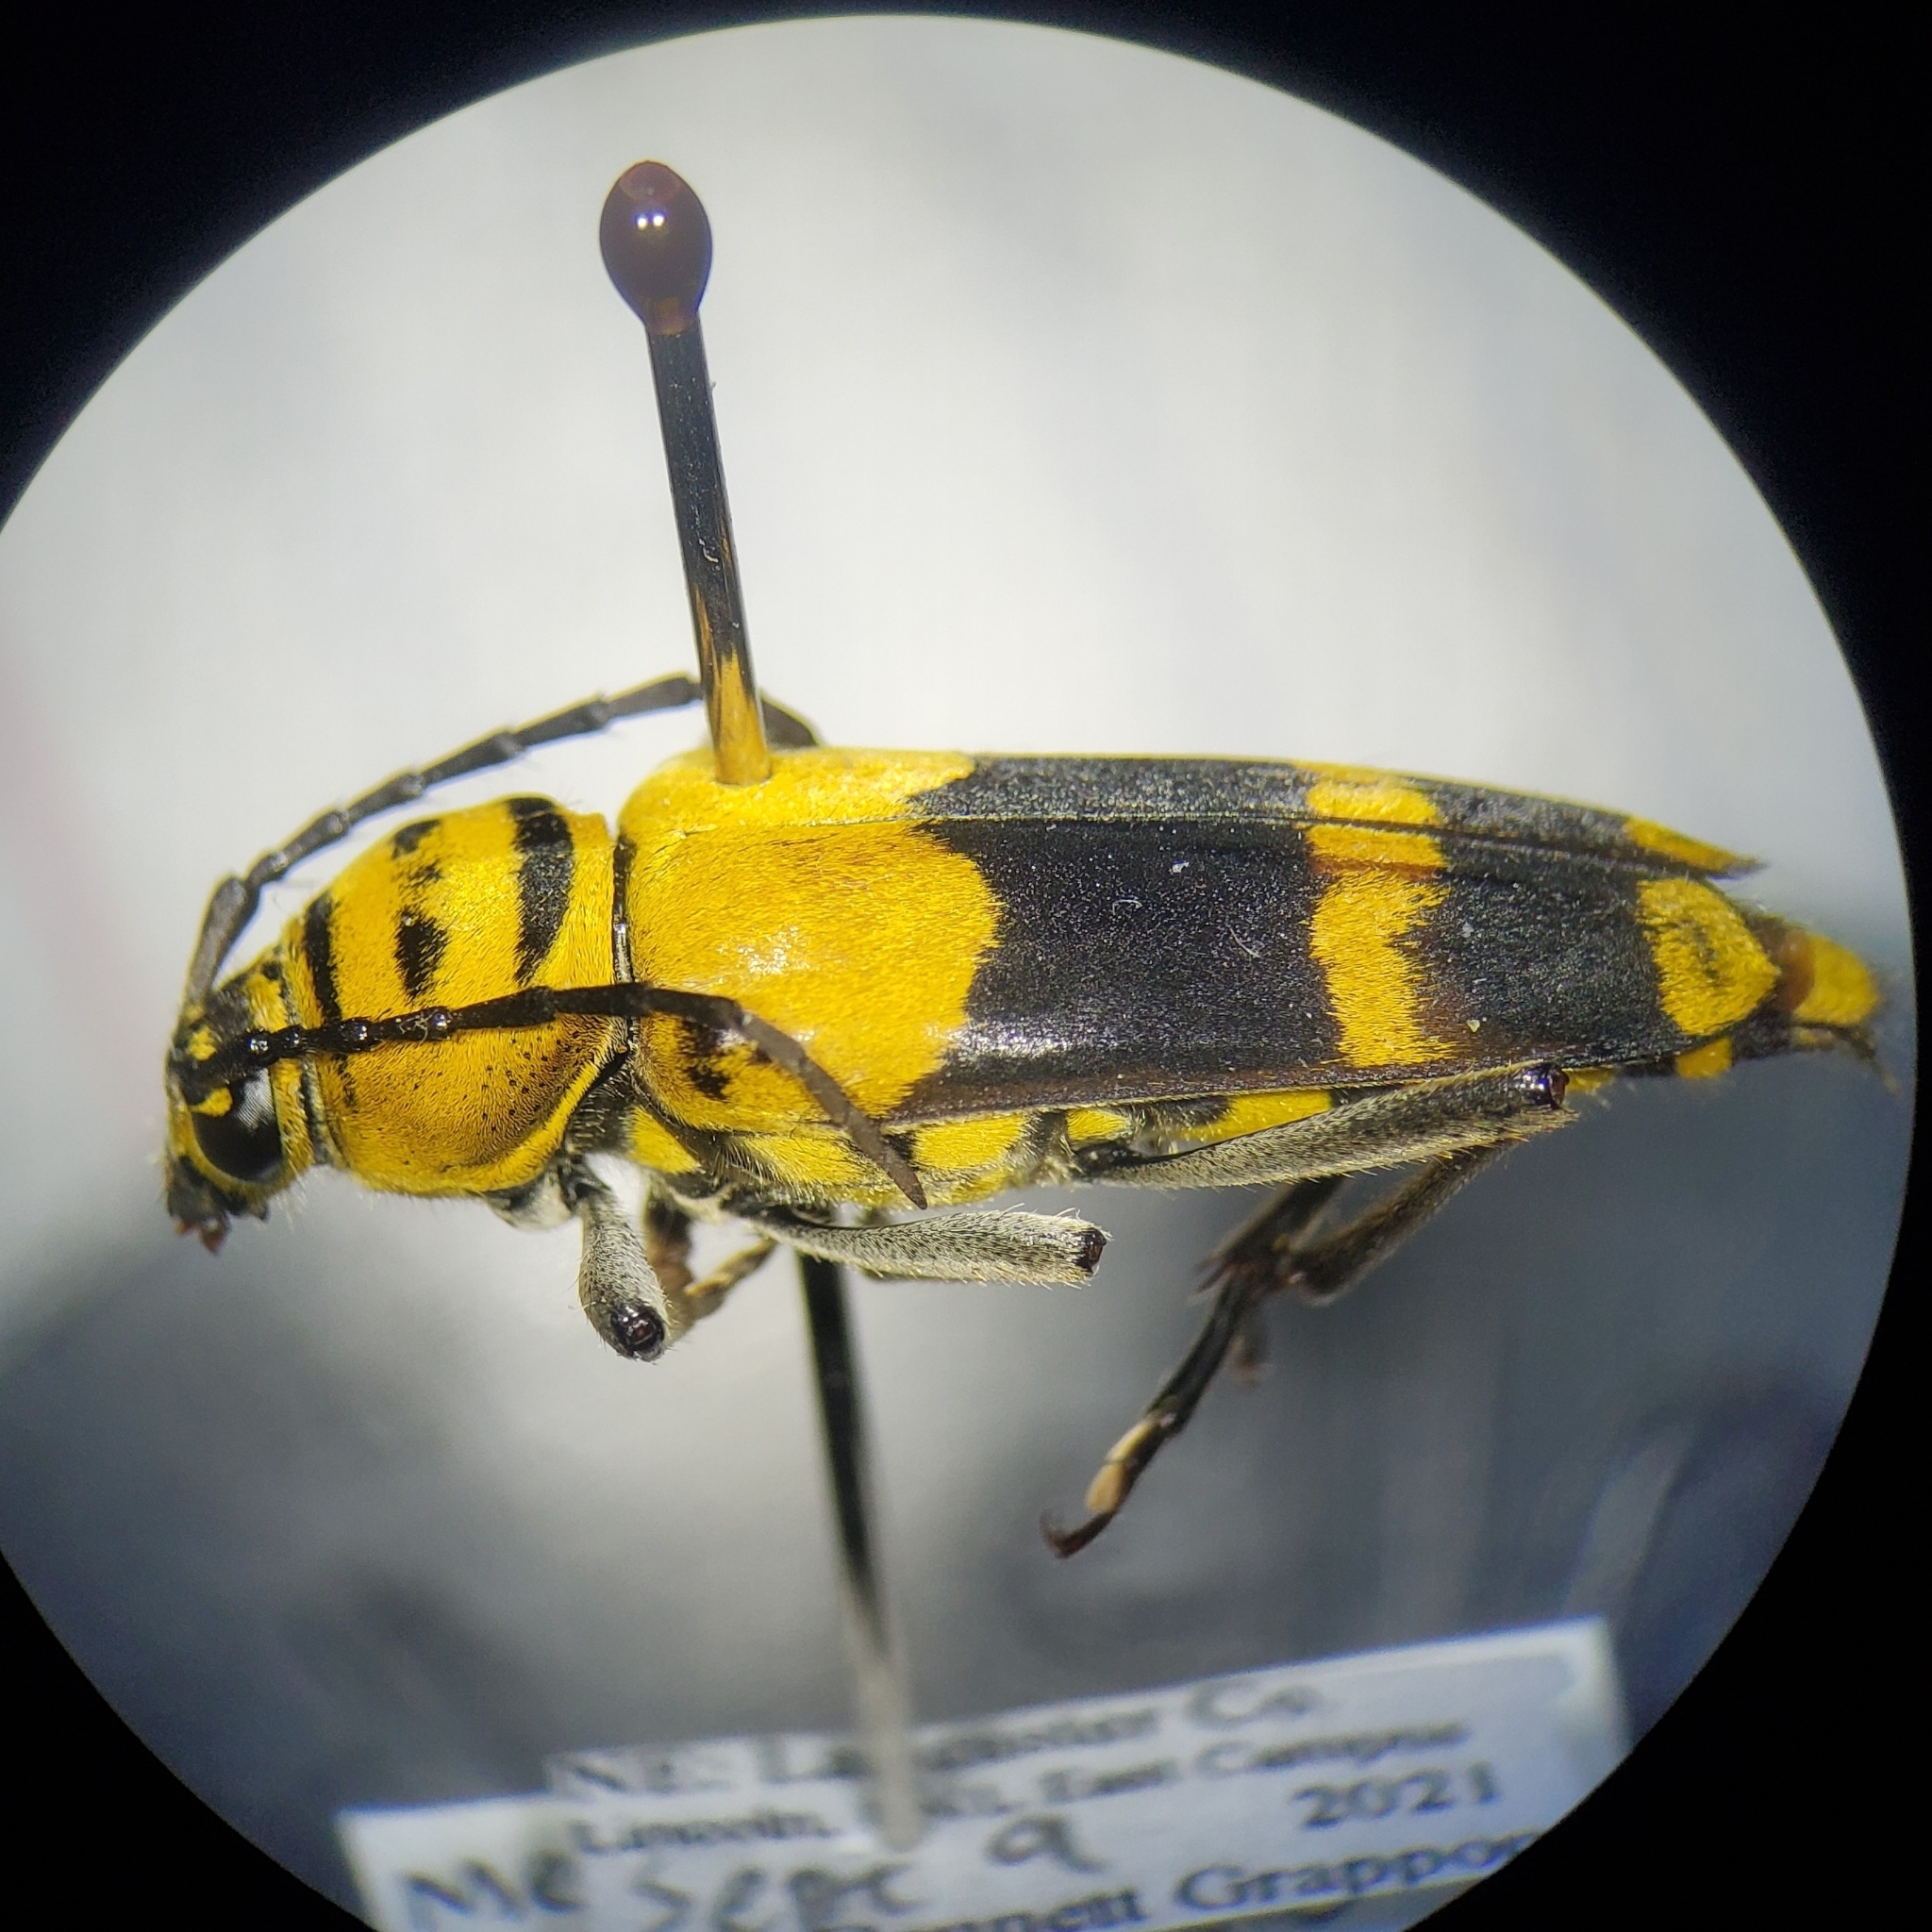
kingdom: Animalia
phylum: Arthropoda
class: Insecta
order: Coleoptera
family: Cerambycidae
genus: Megacyllene
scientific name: Megacyllene decora
